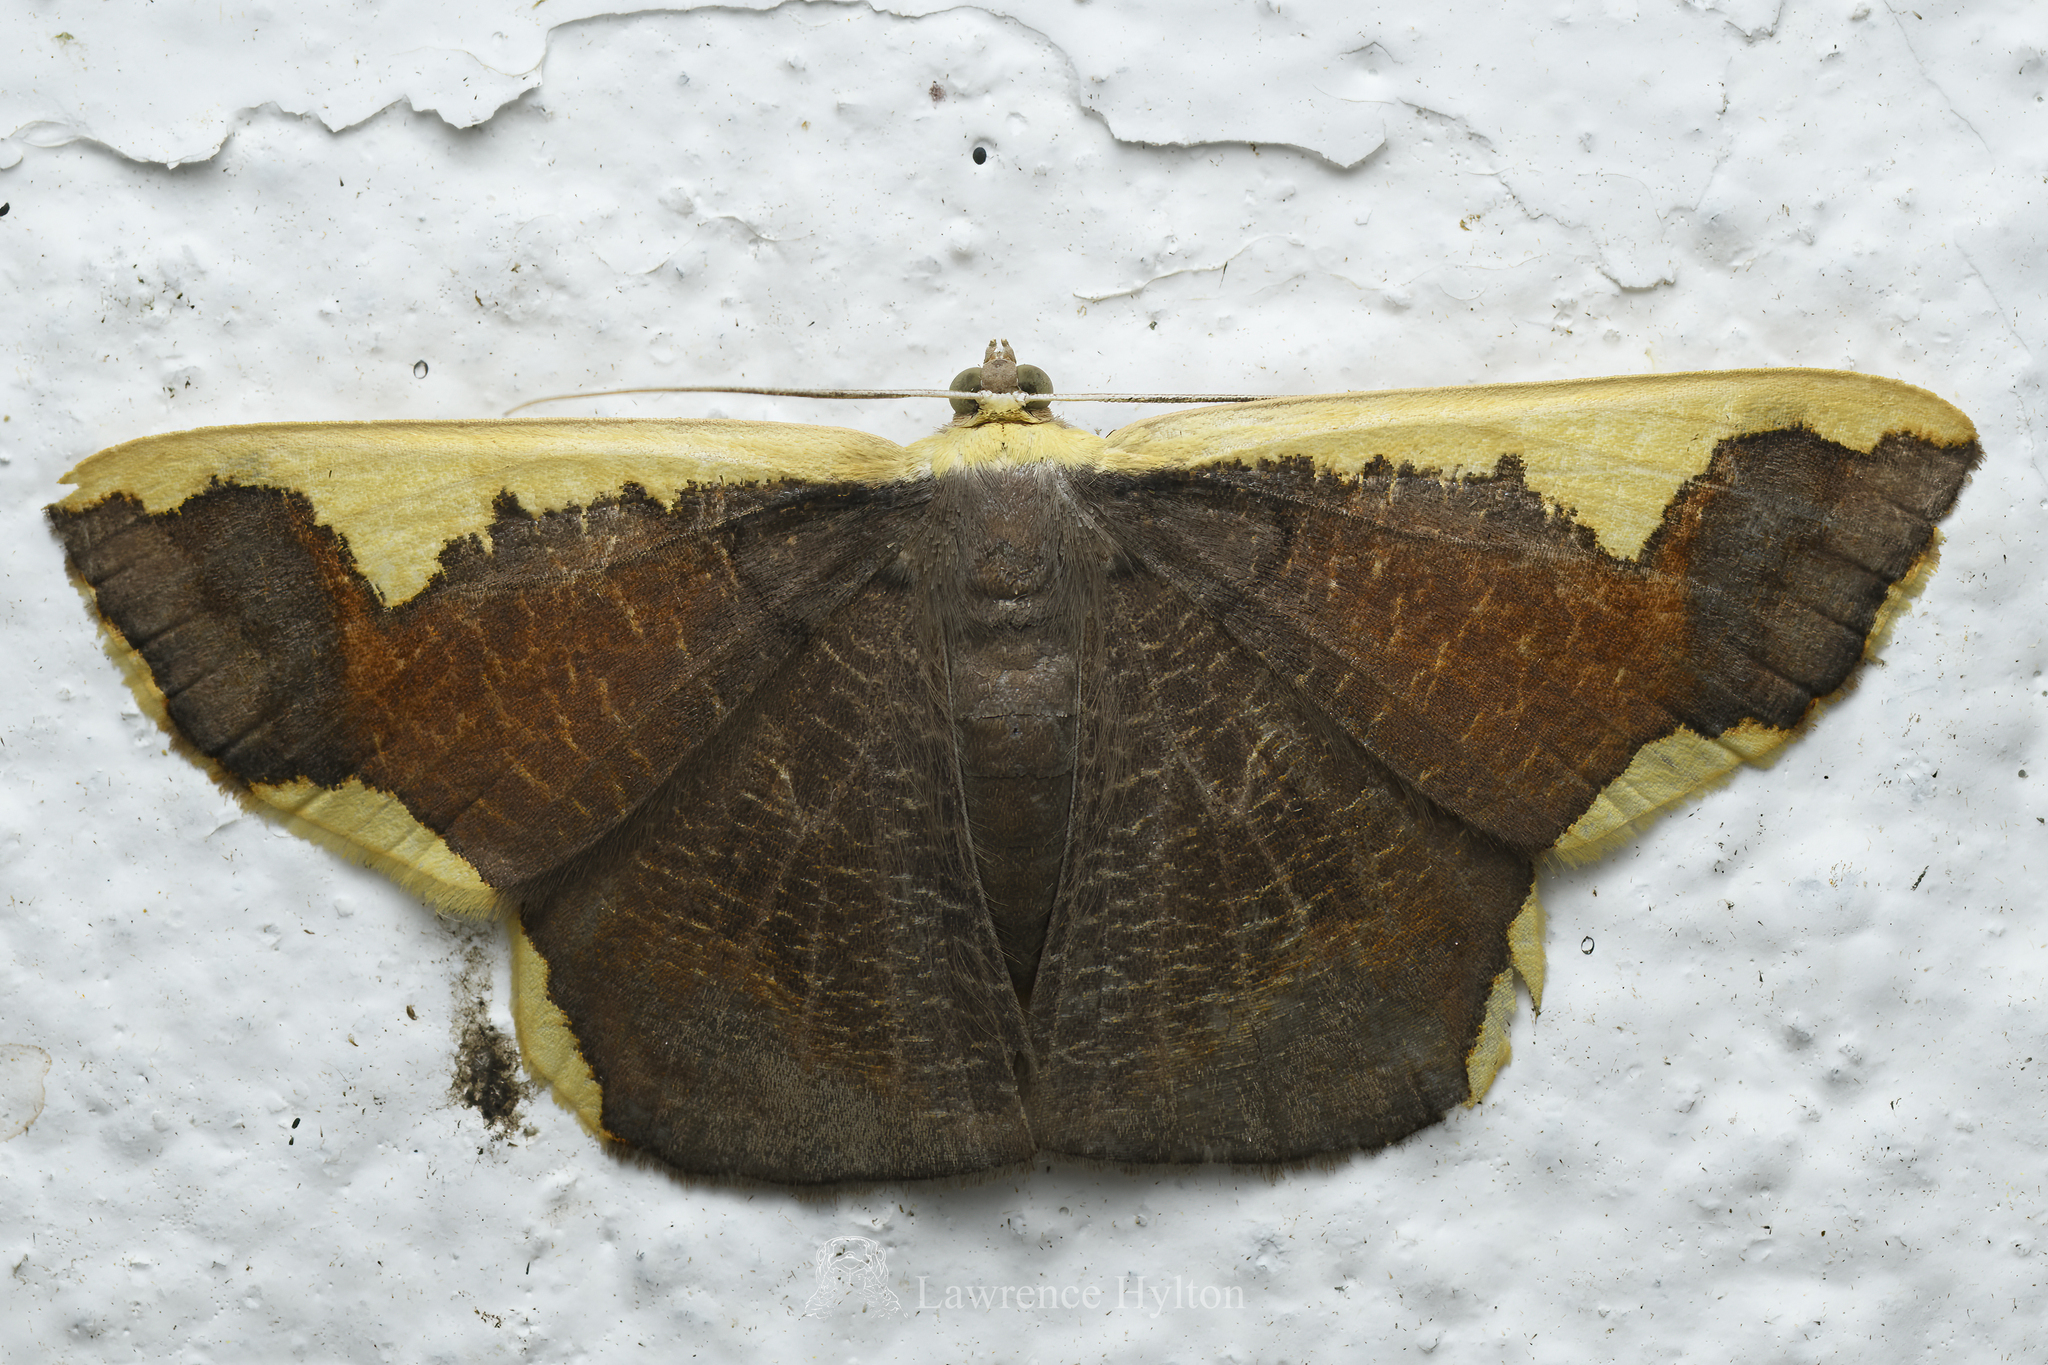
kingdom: Animalia
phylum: Arthropoda
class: Insecta
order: Lepidoptera
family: Geometridae
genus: Plutodes
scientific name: Plutodes costatus
